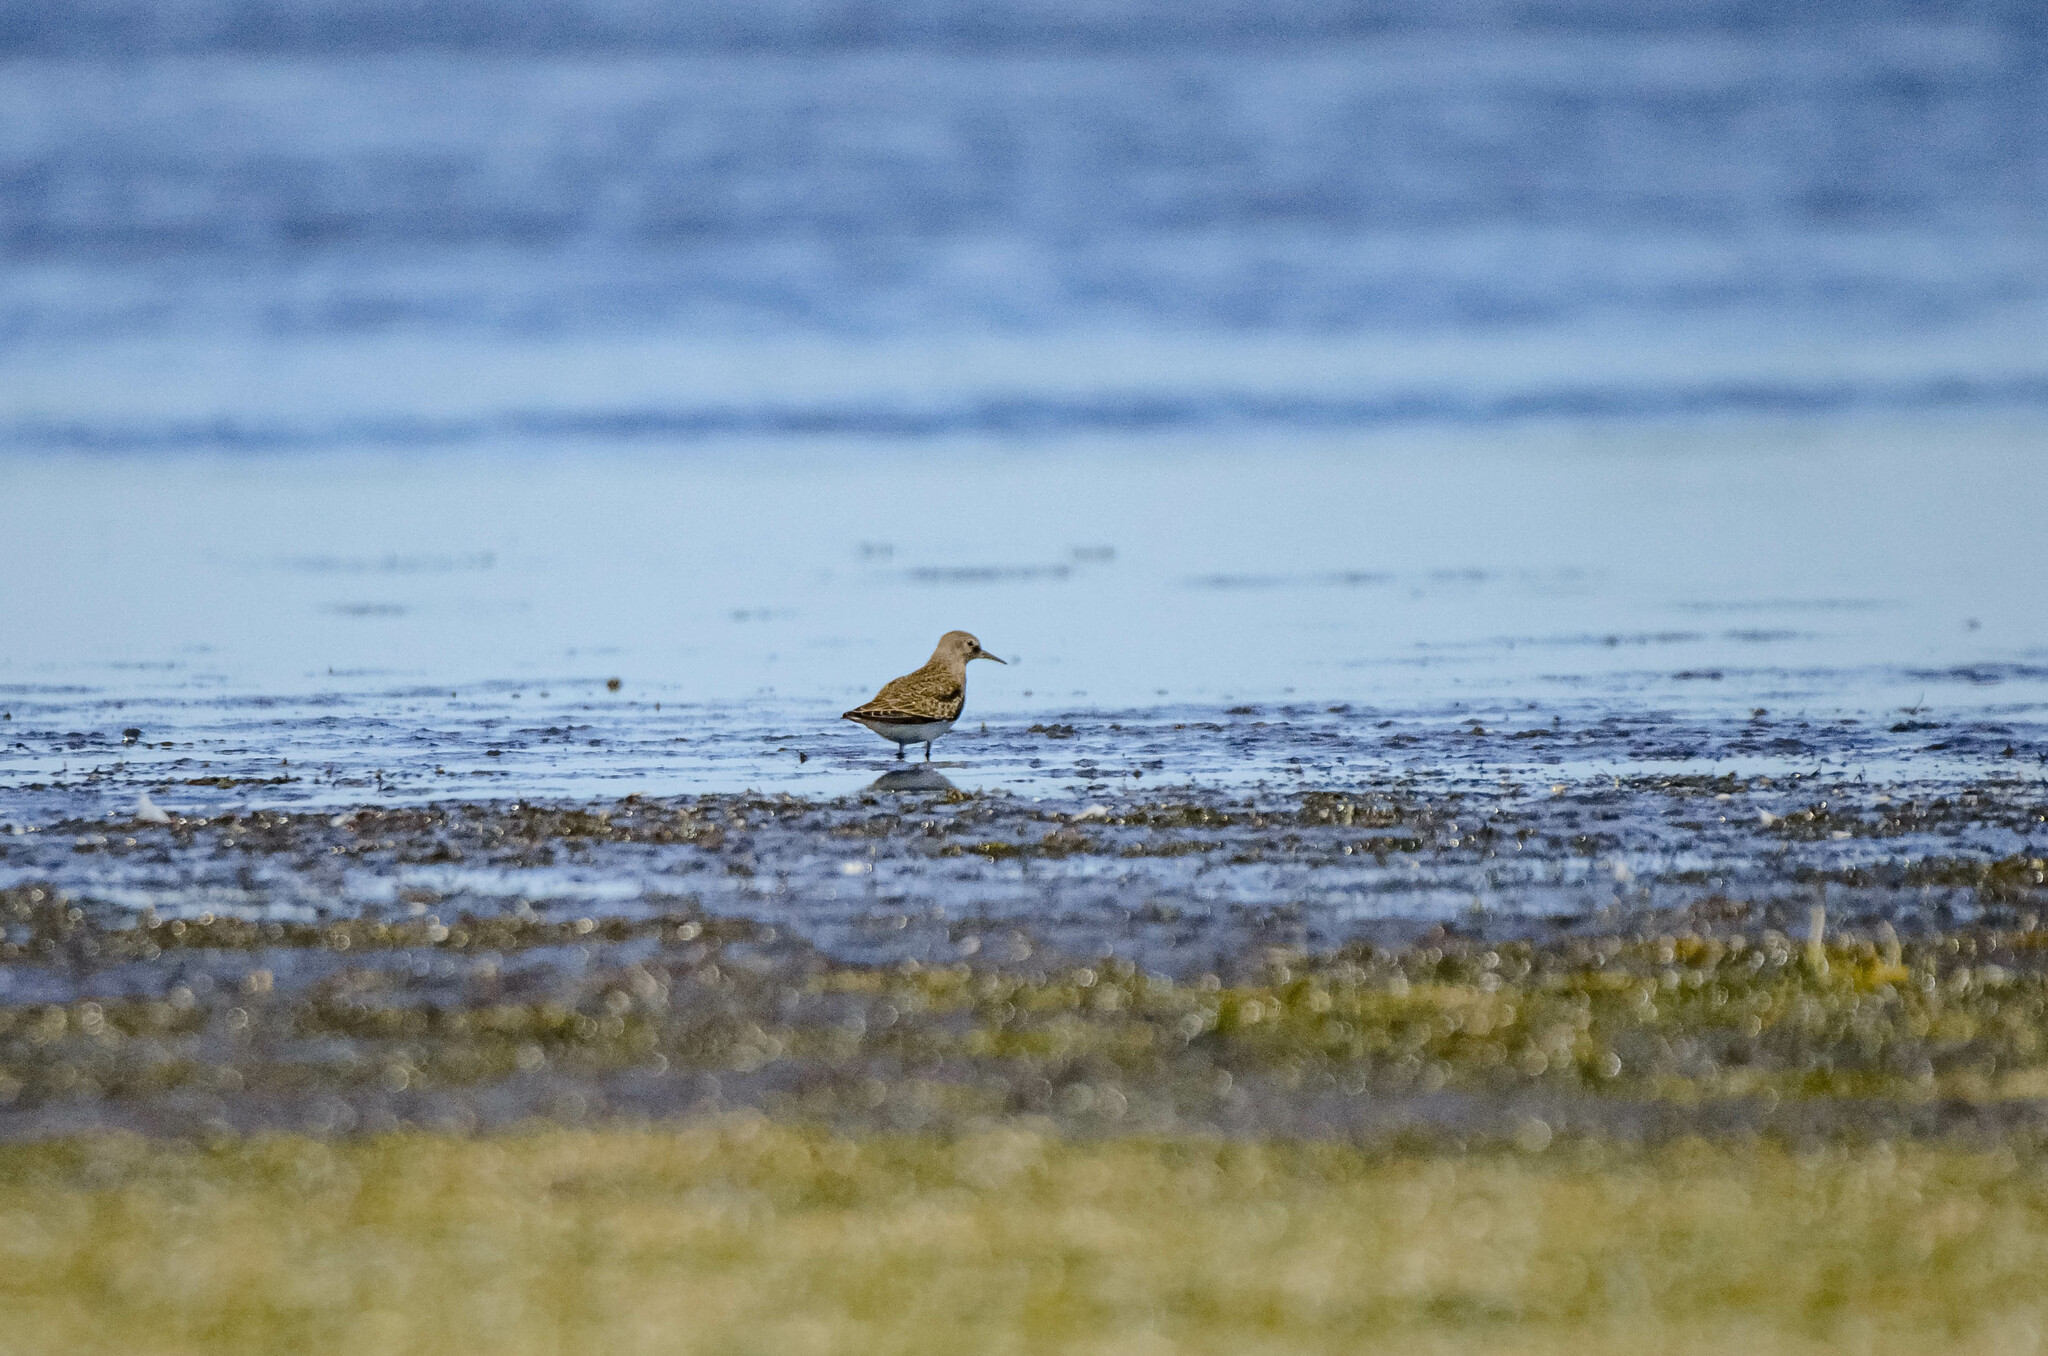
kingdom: Animalia
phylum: Chordata
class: Aves
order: Charadriiformes
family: Scolopacidae
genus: Calidris
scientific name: Calidris temminckii
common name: Temminck's stint
